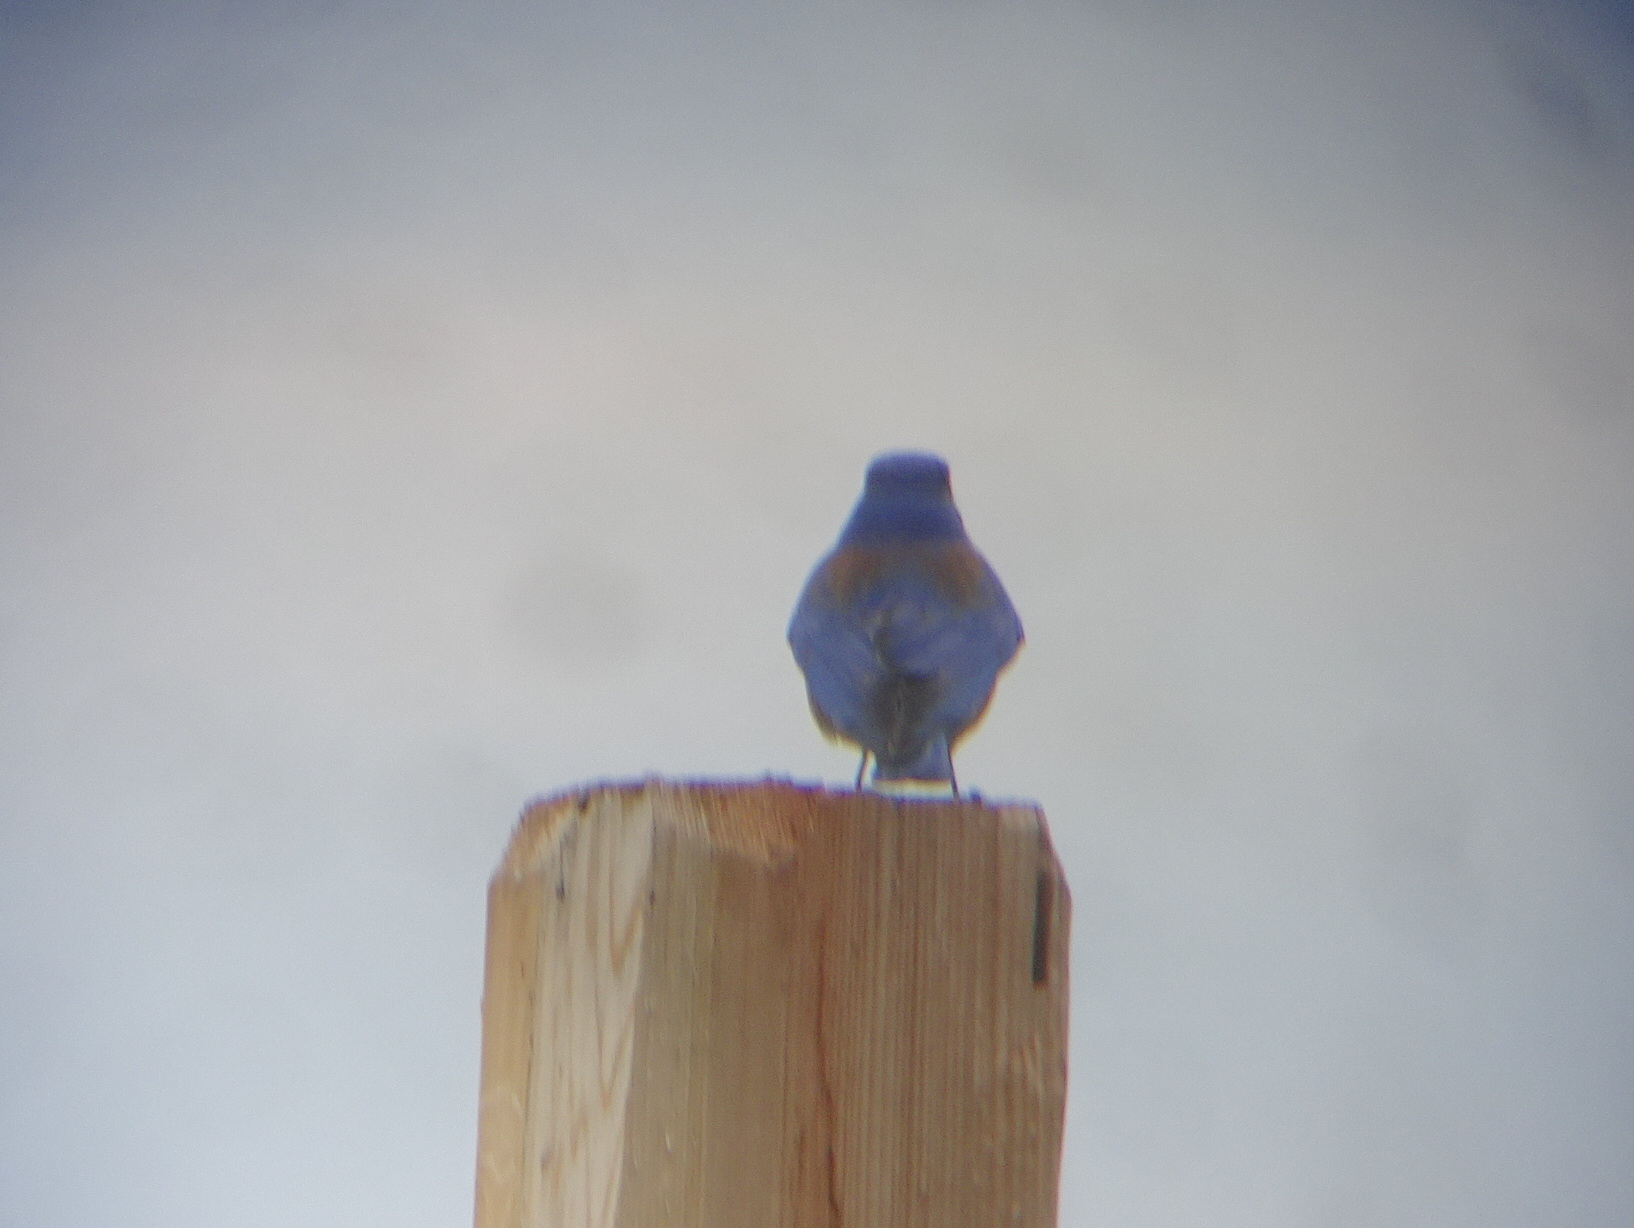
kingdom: Animalia
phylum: Chordata
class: Aves
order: Passeriformes
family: Turdidae
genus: Sialia
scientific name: Sialia mexicana
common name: Western bluebird
